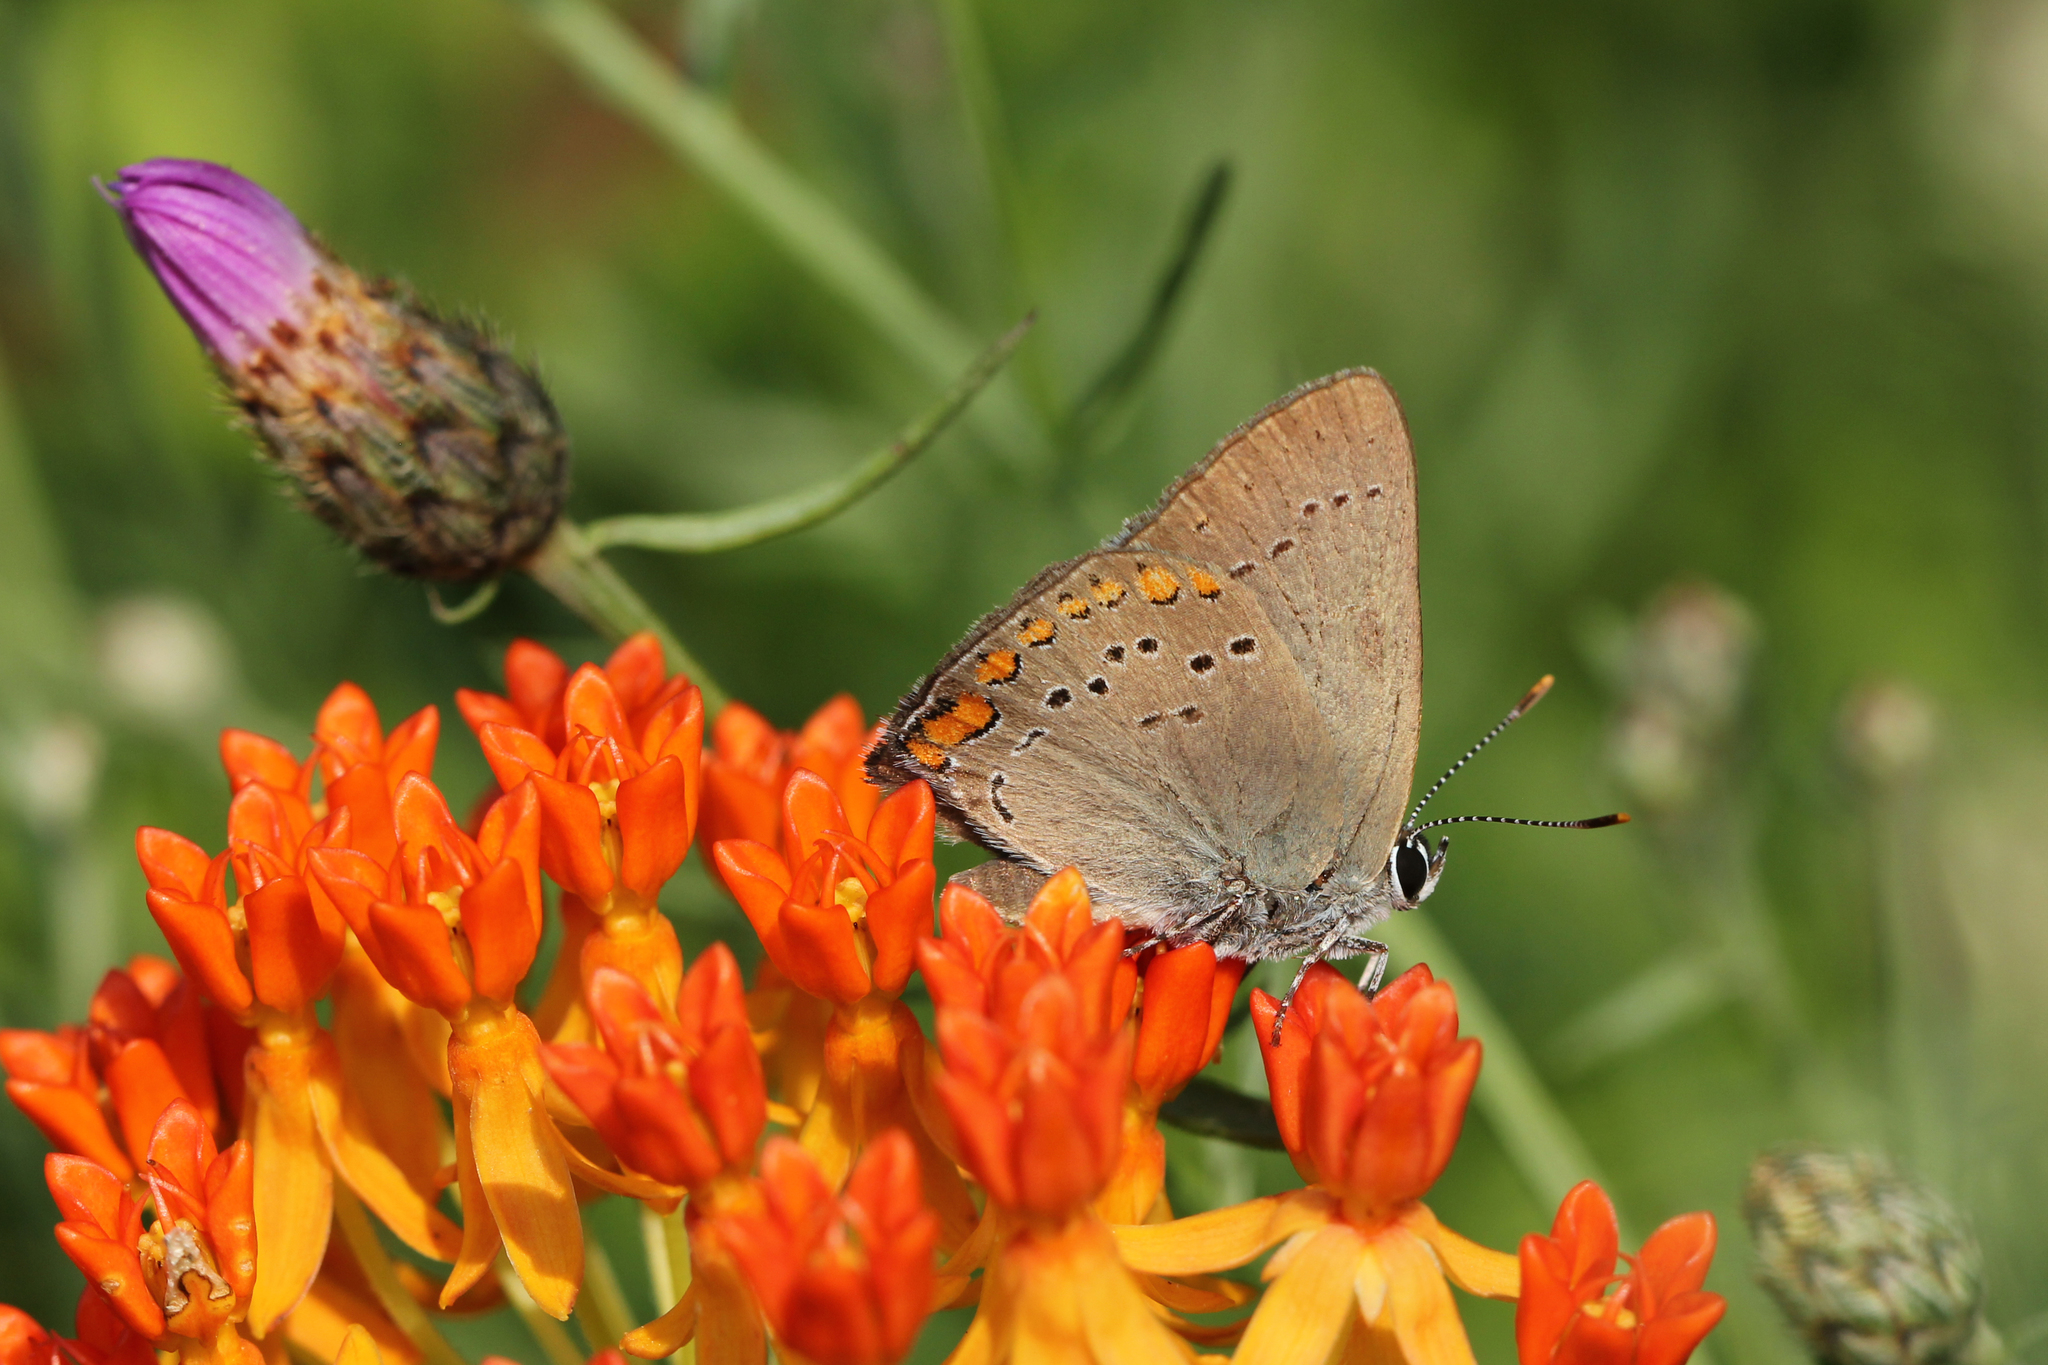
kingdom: Animalia
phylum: Arthropoda
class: Insecta
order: Lepidoptera
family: Lycaenidae
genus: Harkenclenus
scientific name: Harkenclenus titus
